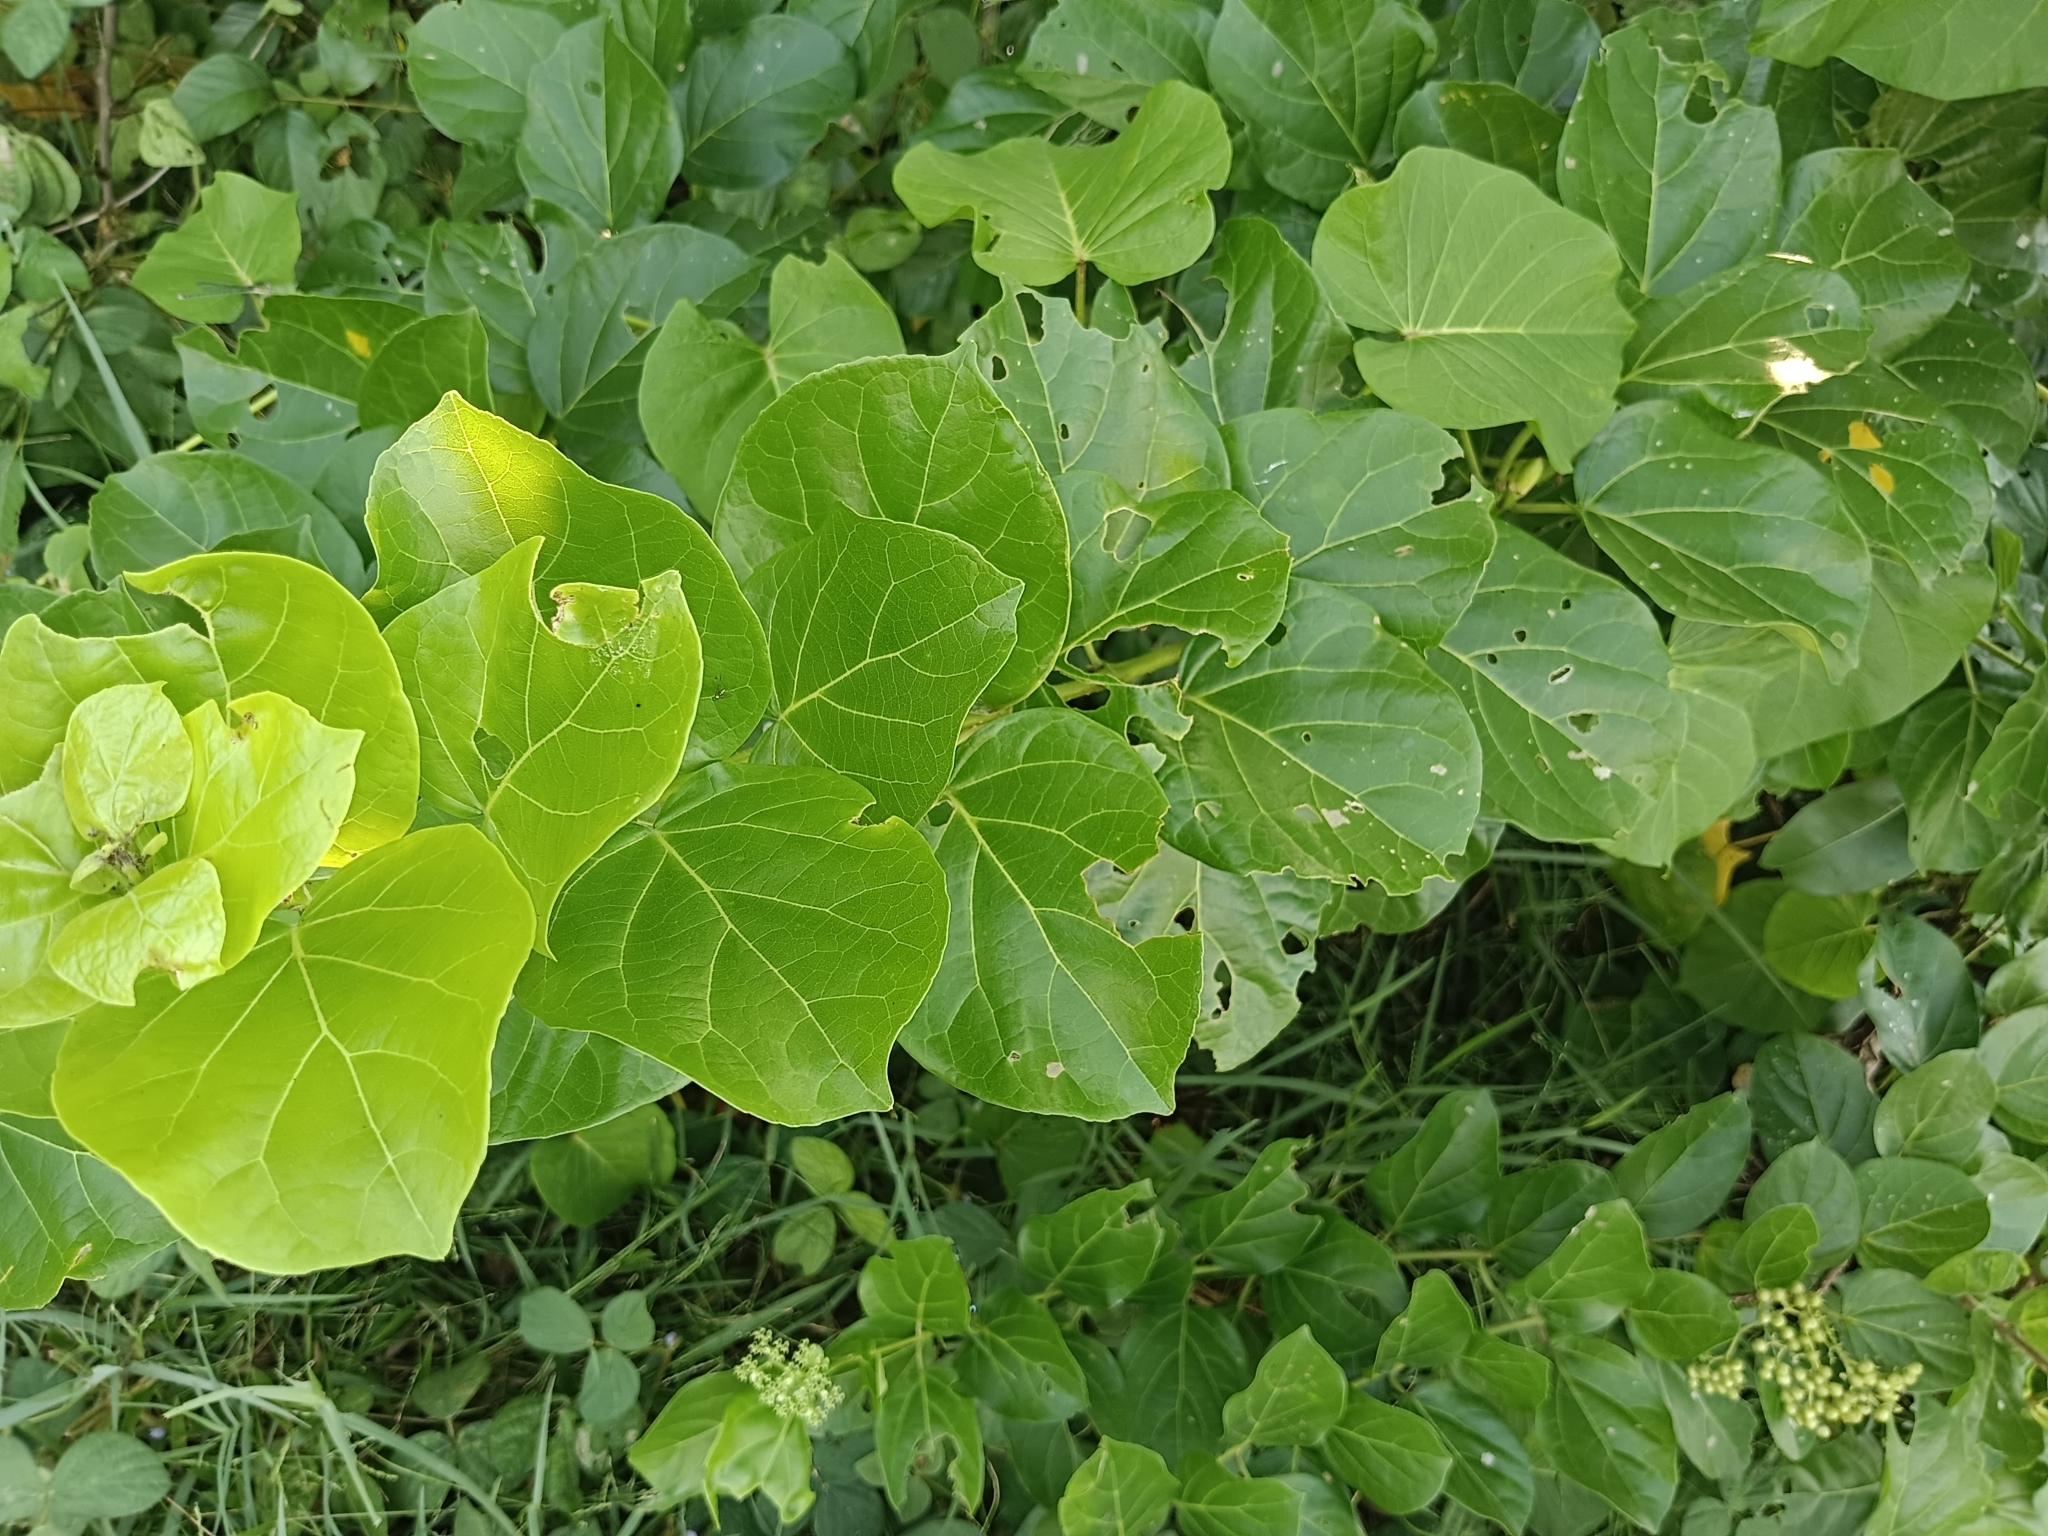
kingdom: Plantae
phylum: Tracheophyta
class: Magnoliopsida
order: Lamiales
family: Lamiaceae
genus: Premna
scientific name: Premna serratifolia
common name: Bastard guelder
